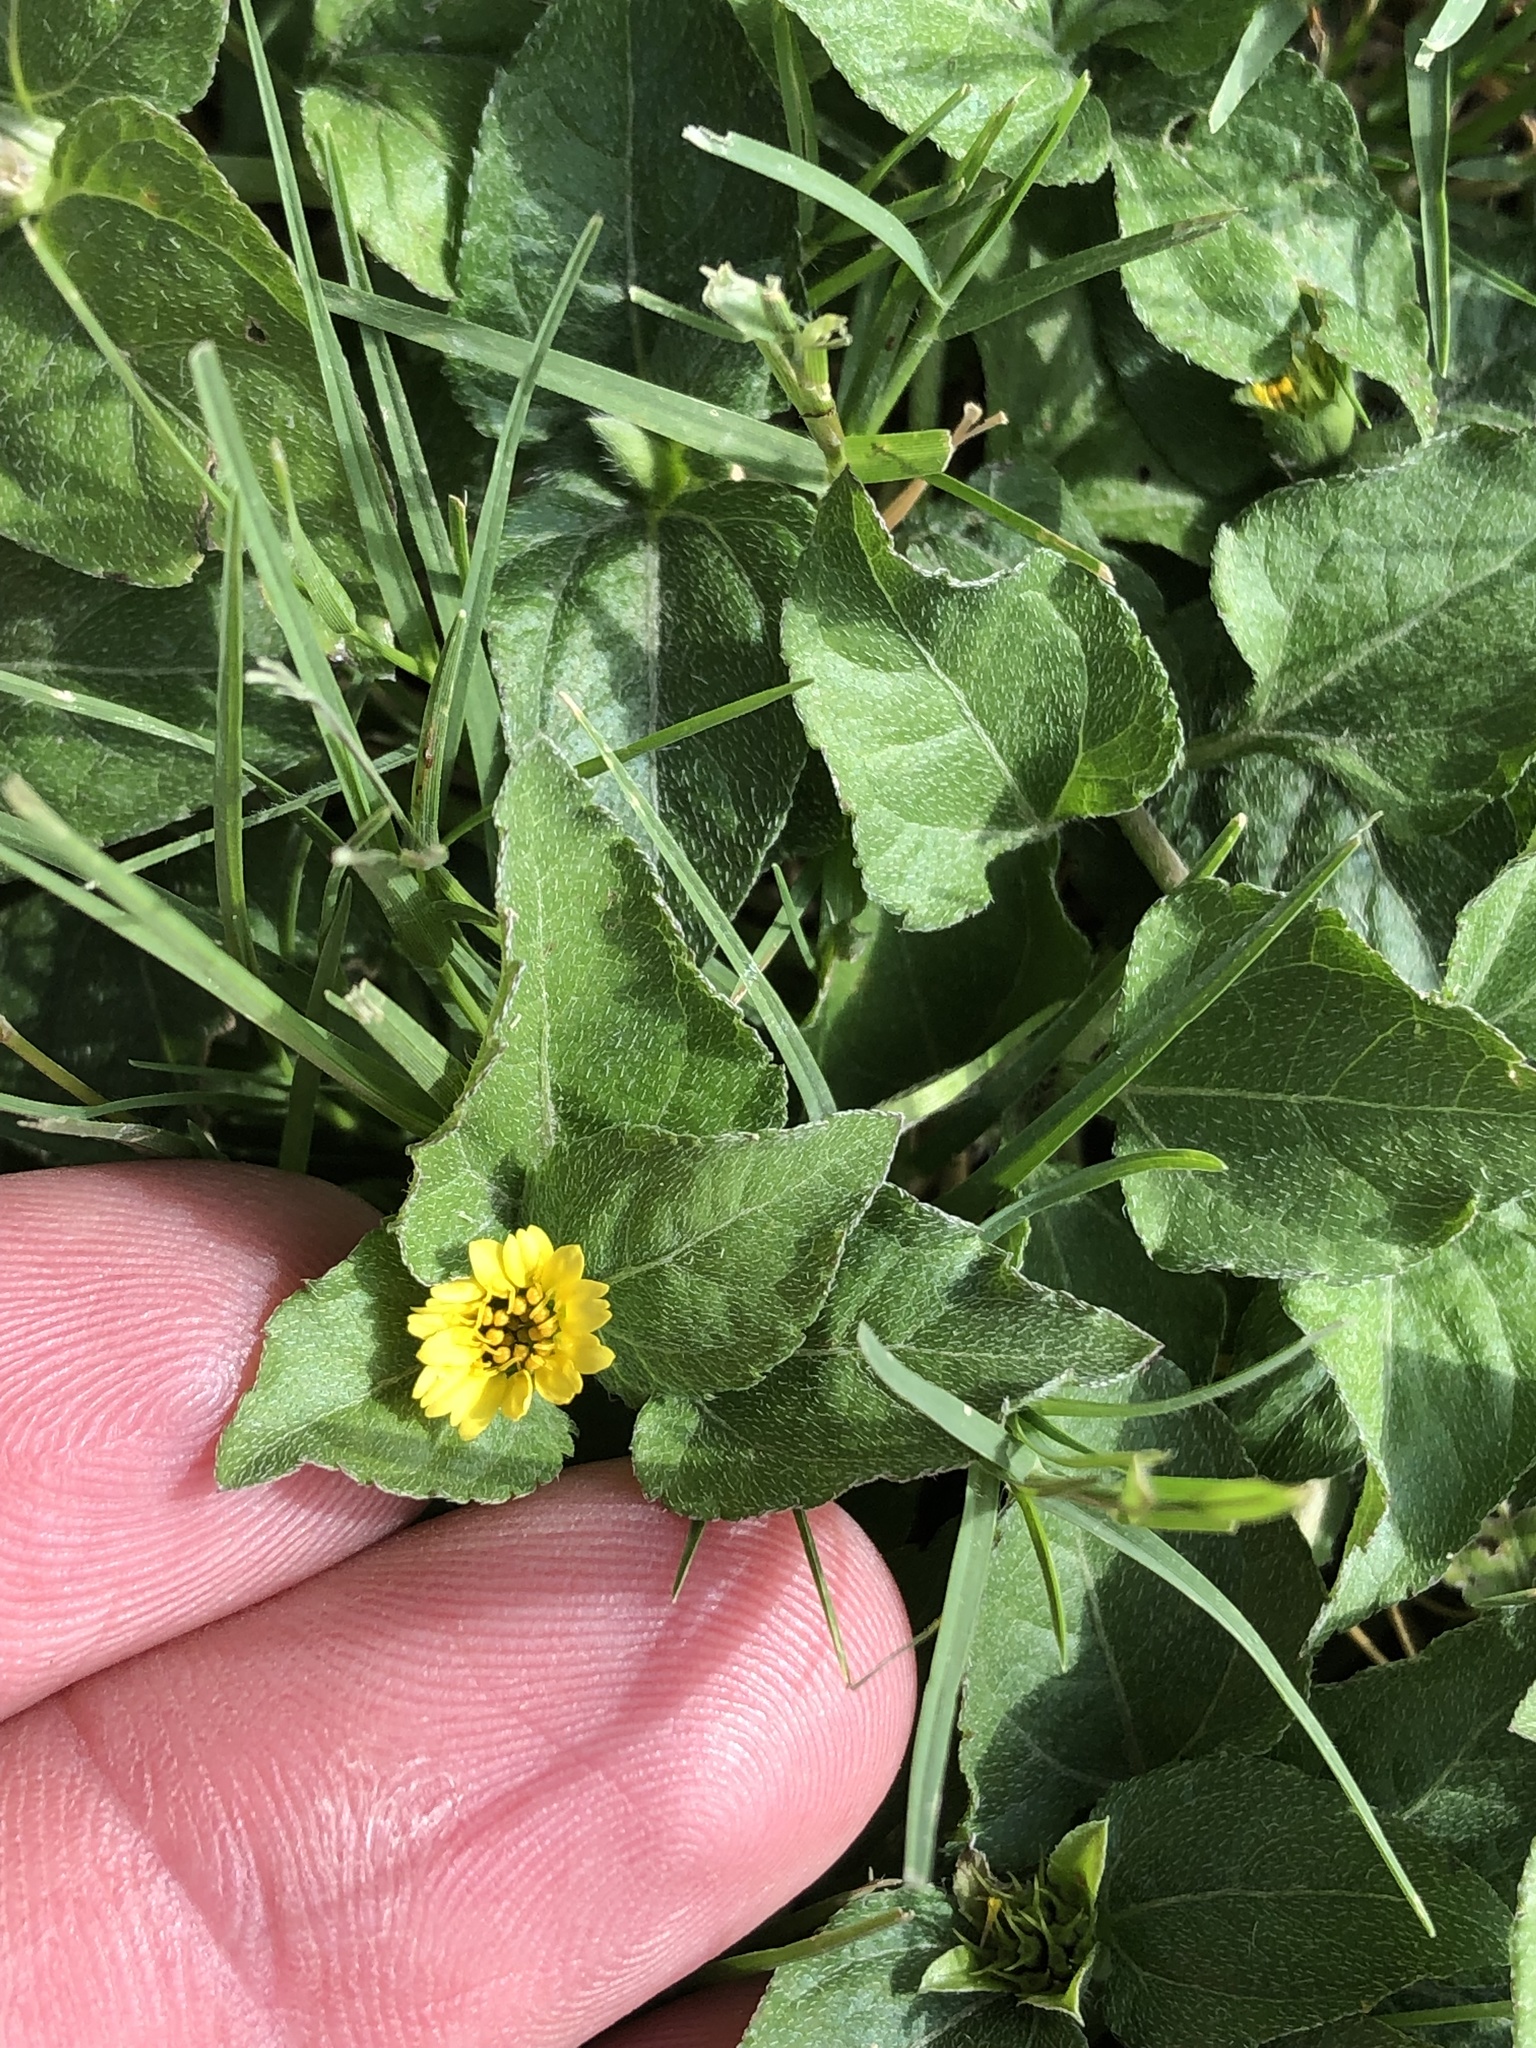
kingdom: Plantae
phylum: Tracheophyta
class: Magnoliopsida
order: Asterales
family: Asteraceae
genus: Calyptocarpus
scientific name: Calyptocarpus vialis
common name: Straggler daisy
